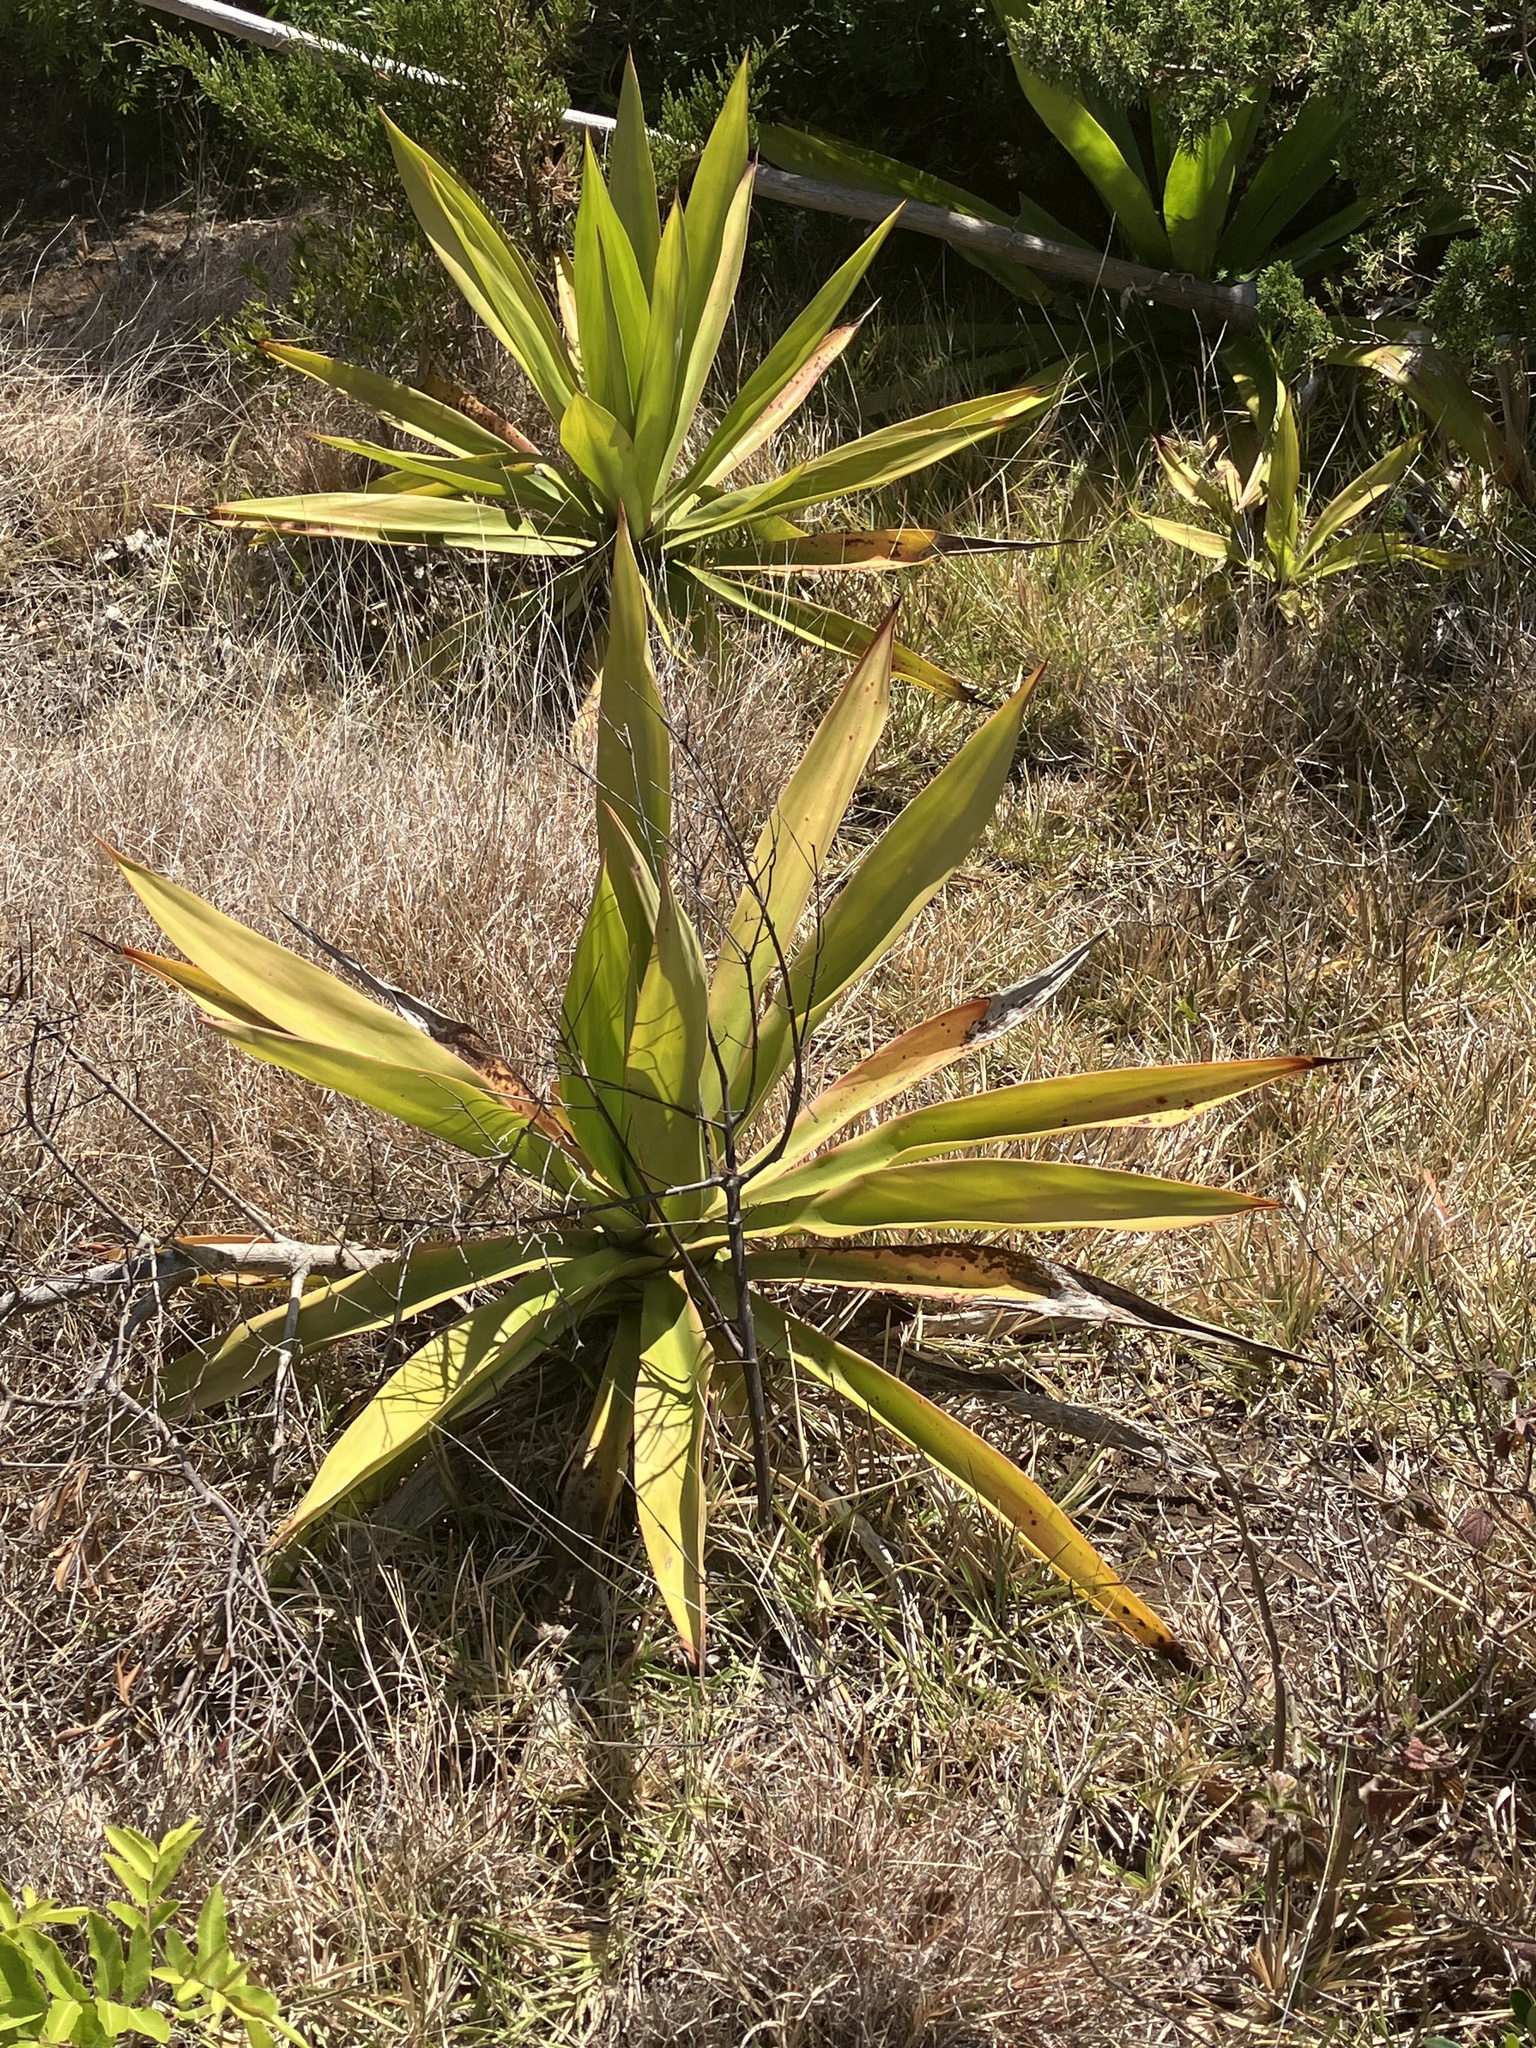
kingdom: Plantae
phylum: Tracheophyta
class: Liliopsida
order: Asparagales
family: Asparagaceae
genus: Furcraea
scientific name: Furcraea foetida
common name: Mauritius hemp
